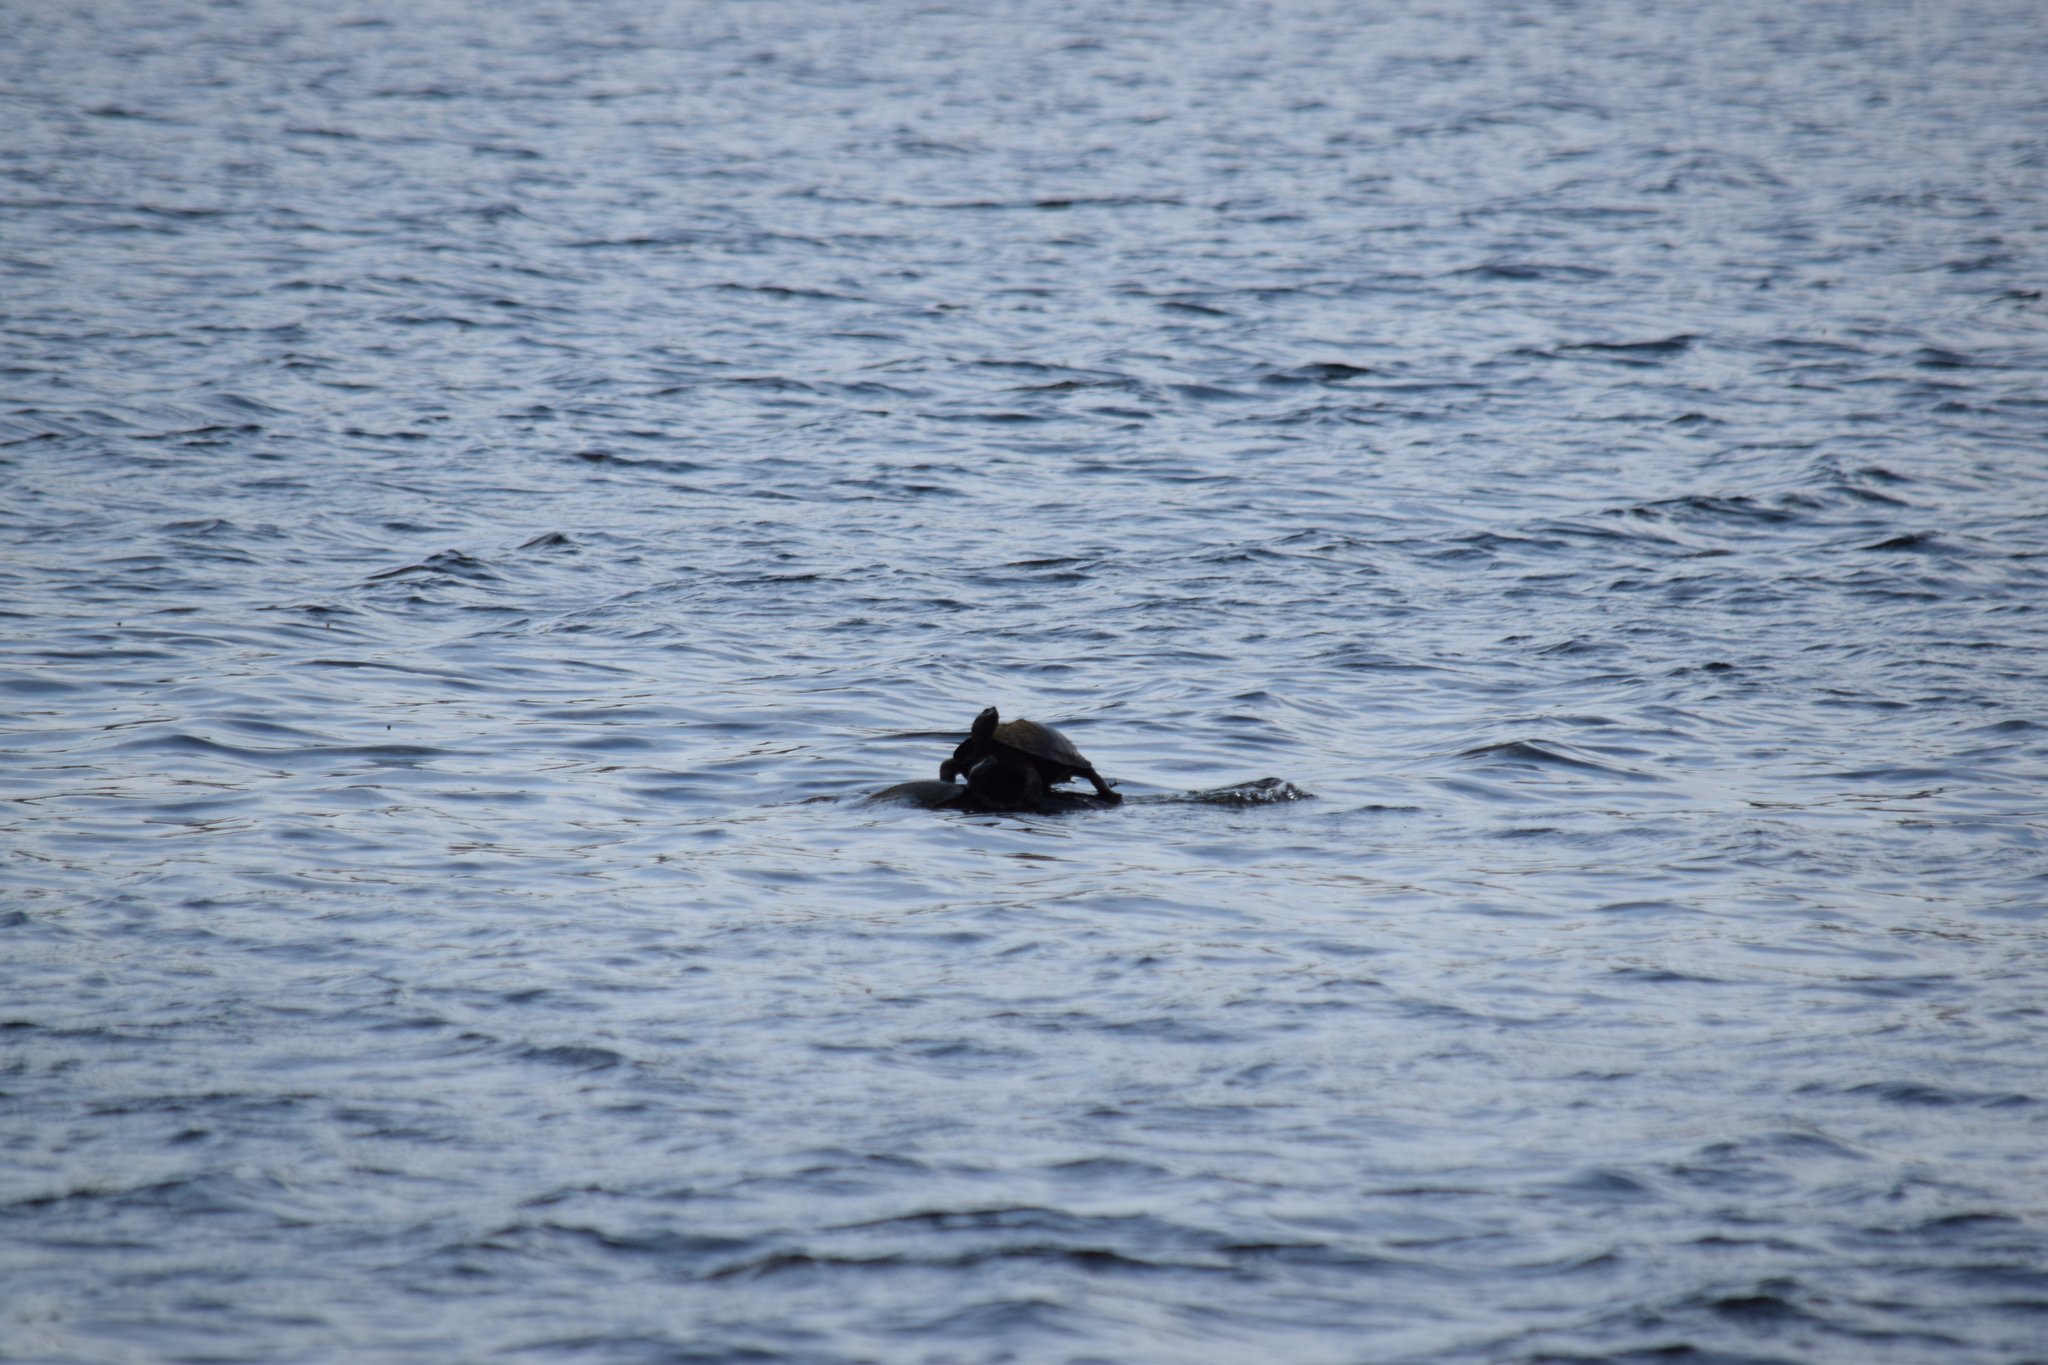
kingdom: Animalia
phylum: Chordata
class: Testudines
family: Emydidae
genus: Pseudemys
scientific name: Pseudemys rubriventris
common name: American red-bellied turtle
